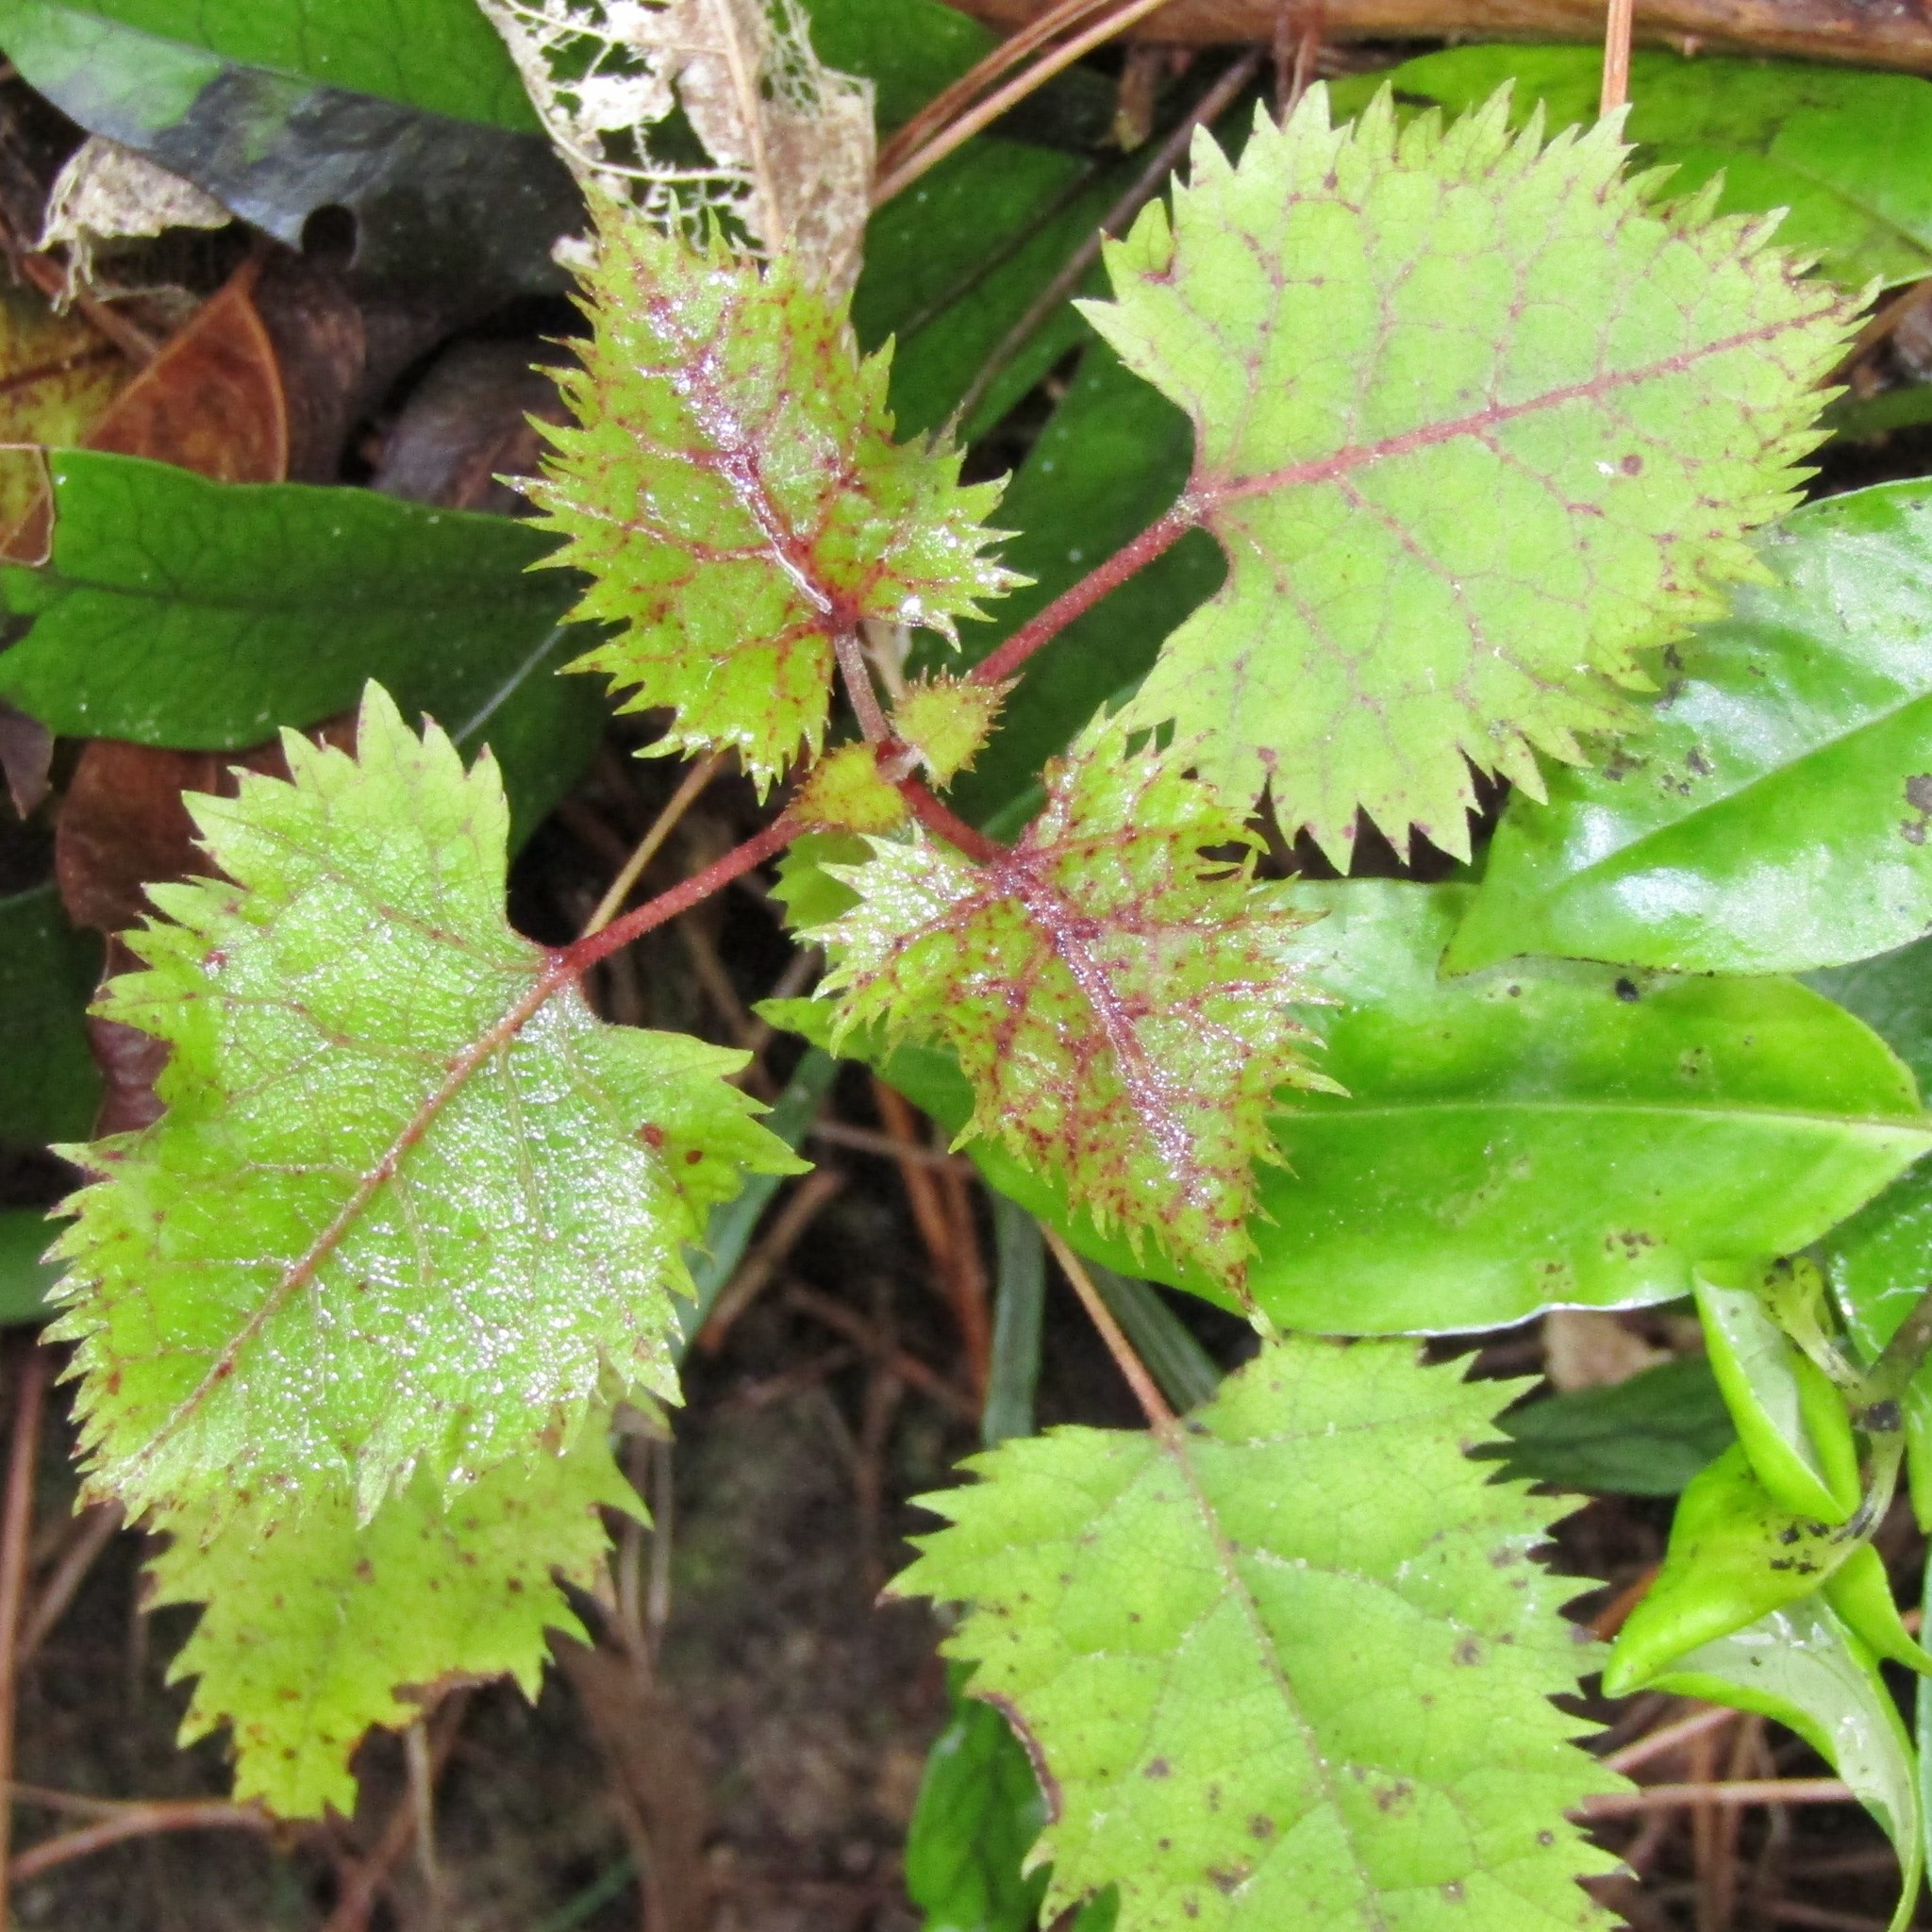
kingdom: Plantae
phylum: Tracheophyta
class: Magnoliopsida
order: Oxalidales
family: Elaeocarpaceae
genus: Aristotelia
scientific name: Aristotelia serrata
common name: New zealand wineberry
